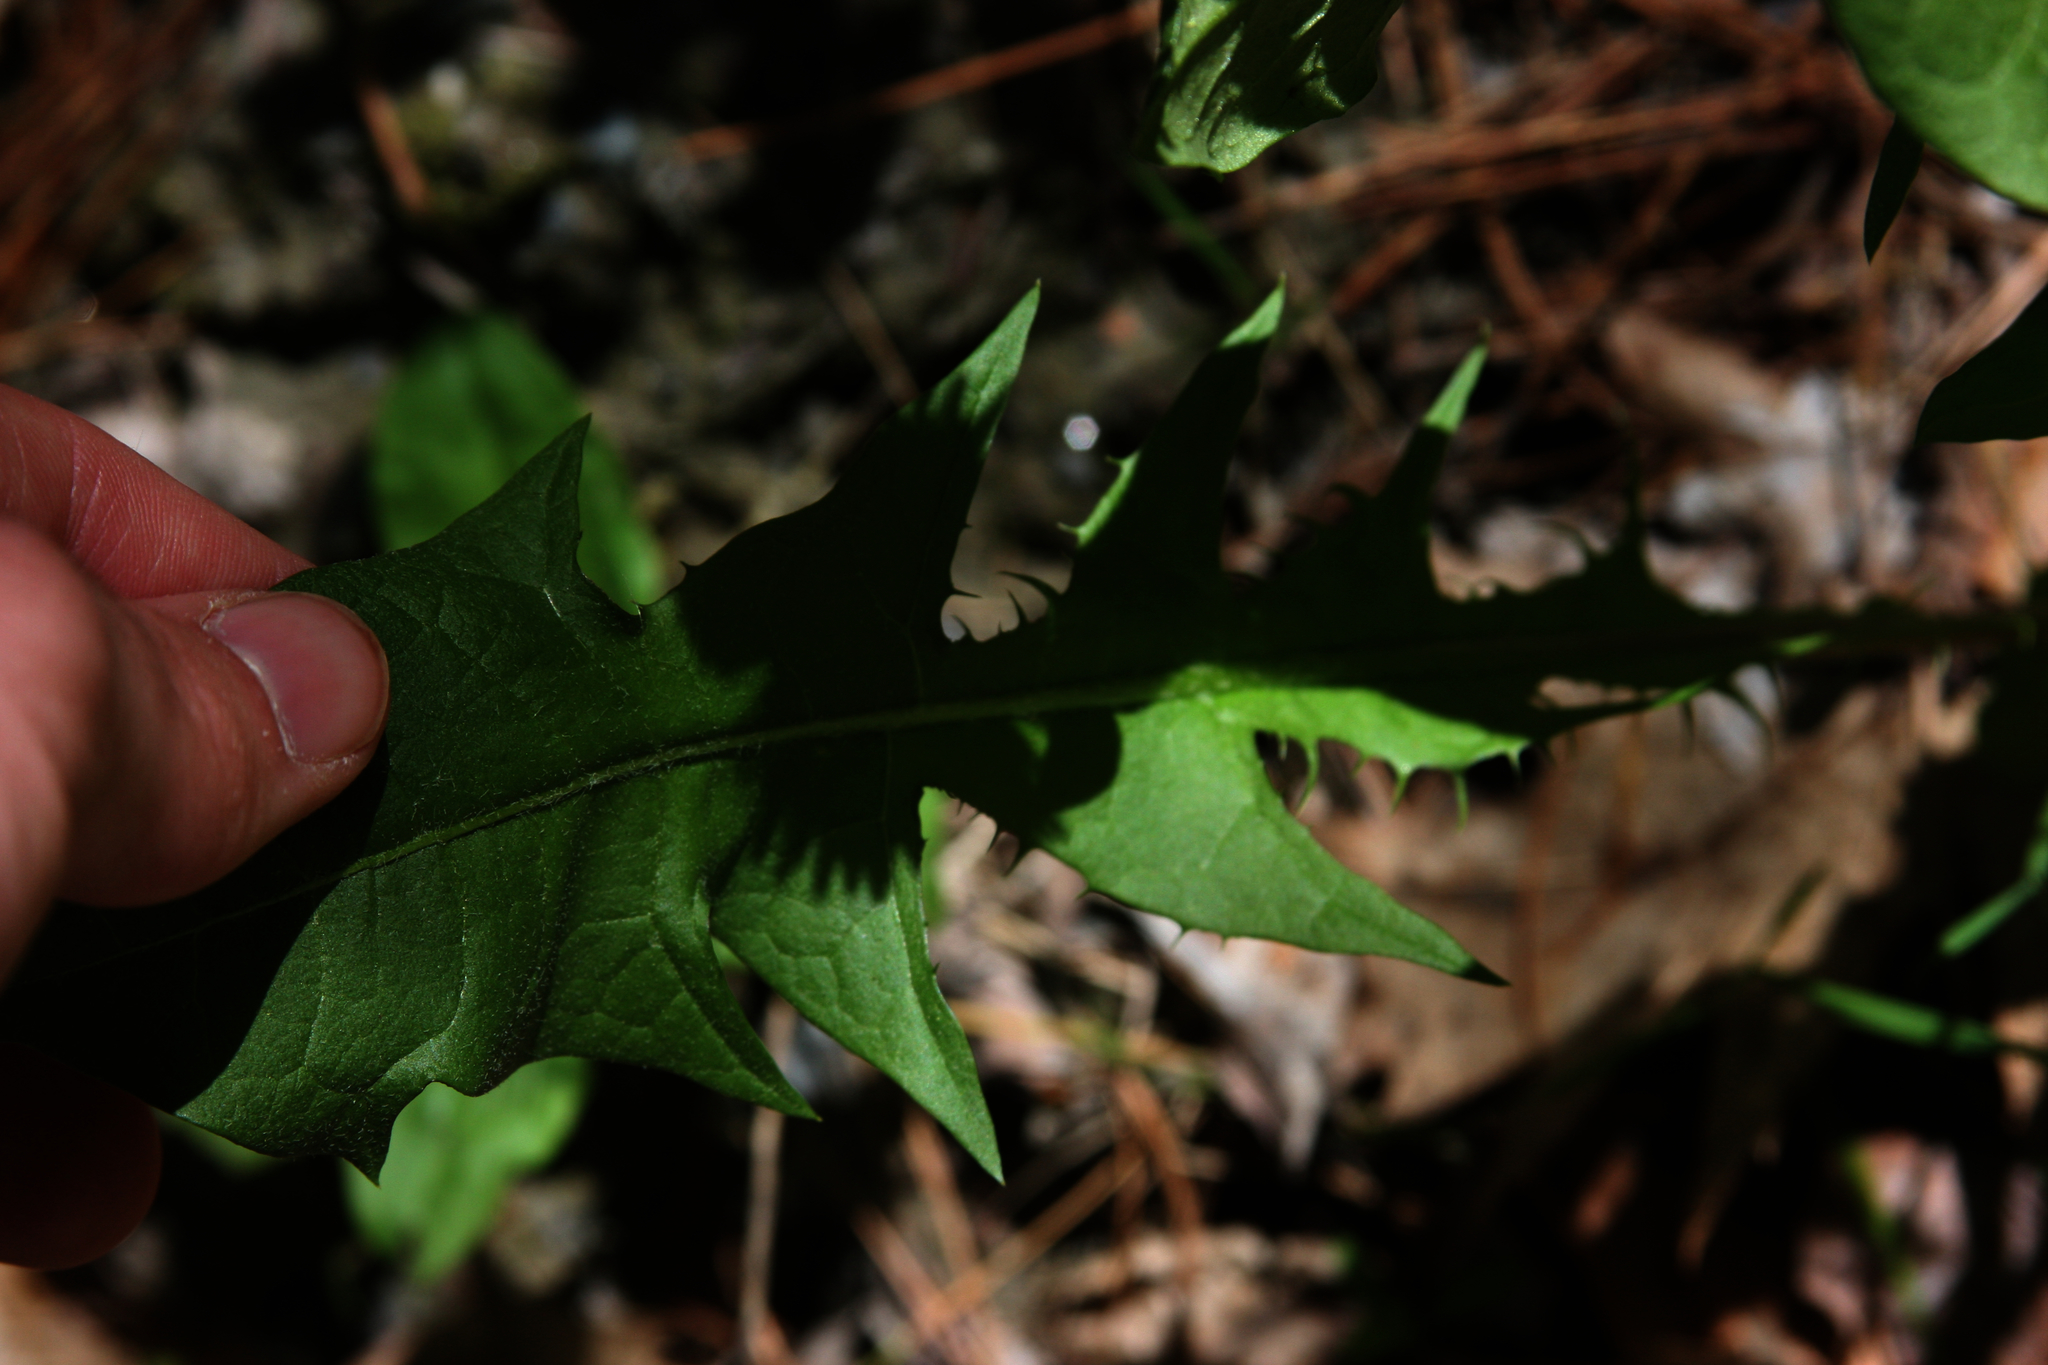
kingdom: Plantae
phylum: Tracheophyta
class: Magnoliopsida
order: Asterales
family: Asteraceae
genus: Taraxacum
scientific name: Taraxacum officinale
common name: Common dandelion
